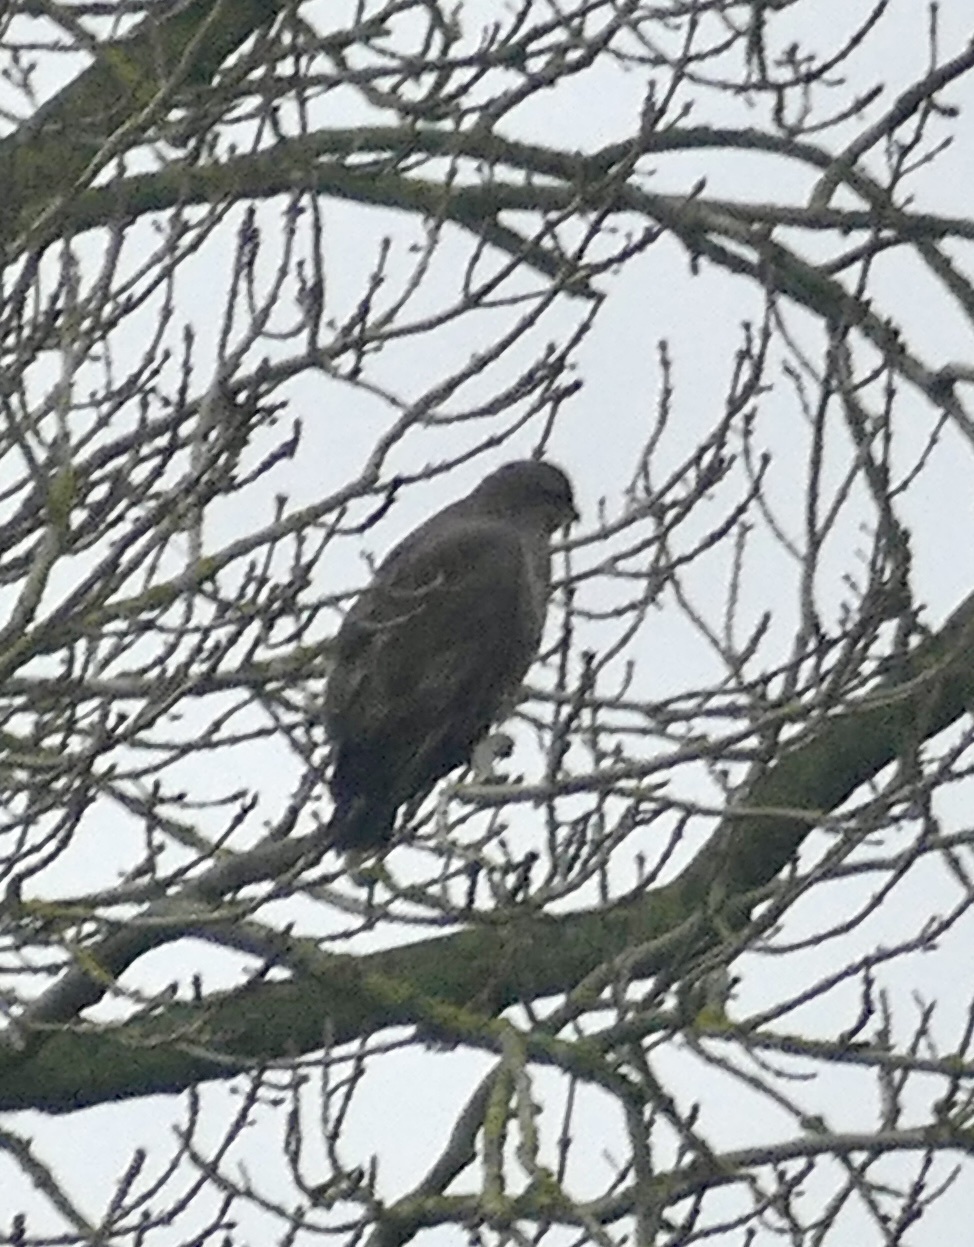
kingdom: Animalia
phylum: Chordata
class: Aves
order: Accipitriformes
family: Accipitridae
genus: Buteo
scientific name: Buteo buteo
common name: Common buzzard
